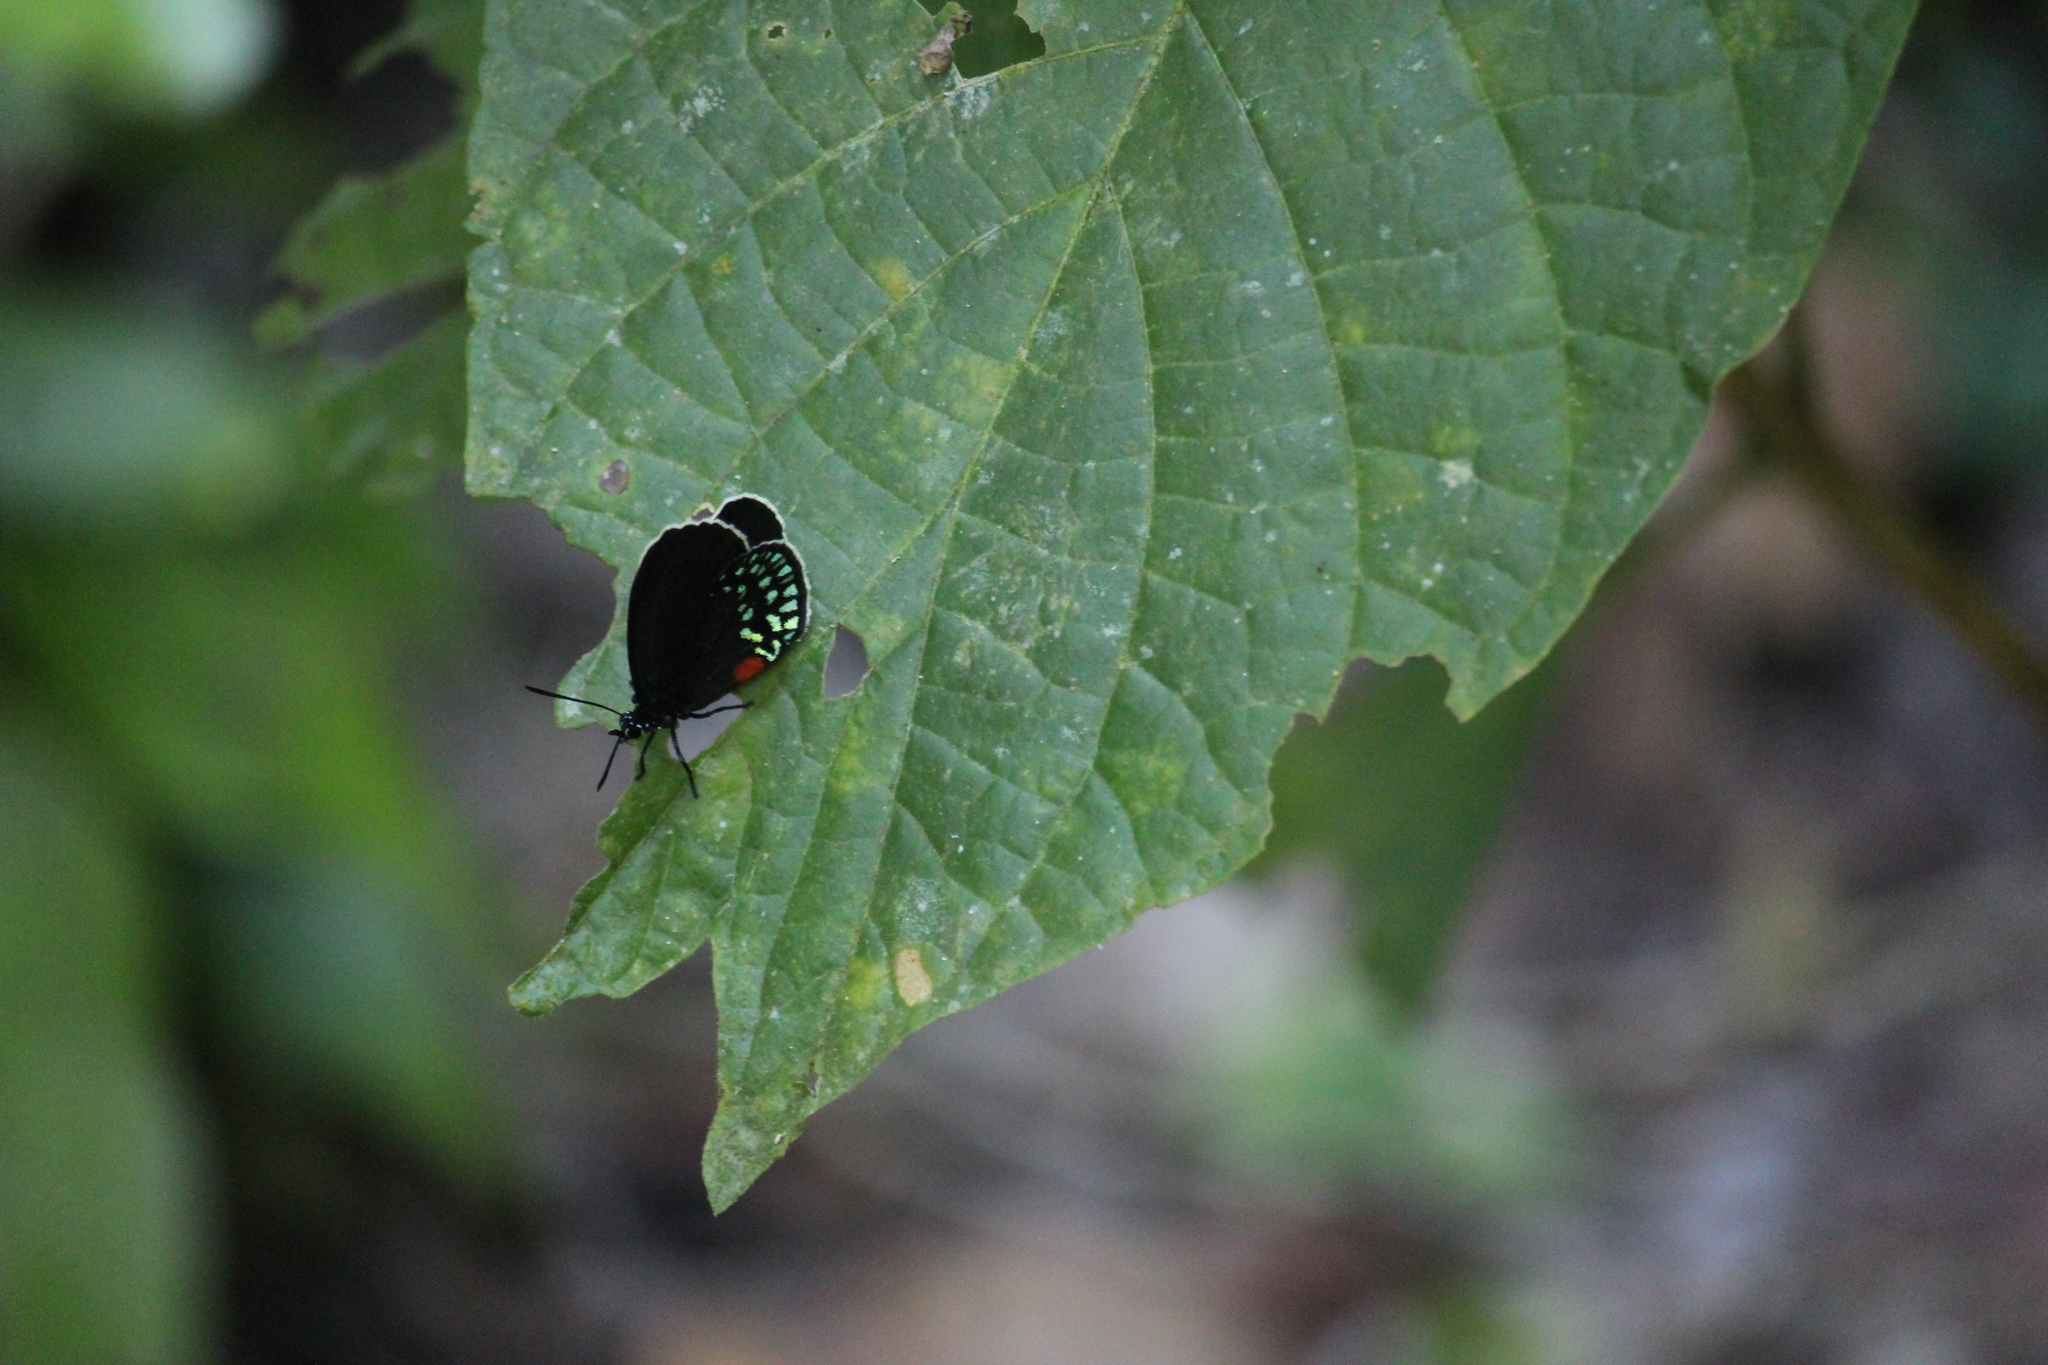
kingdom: Animalia
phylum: Arthropoda
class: Insecta
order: Lepidoptera
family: Lycaenidae
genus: Eumaeus
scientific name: Eumaeus toxea
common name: Mexican cycadian
